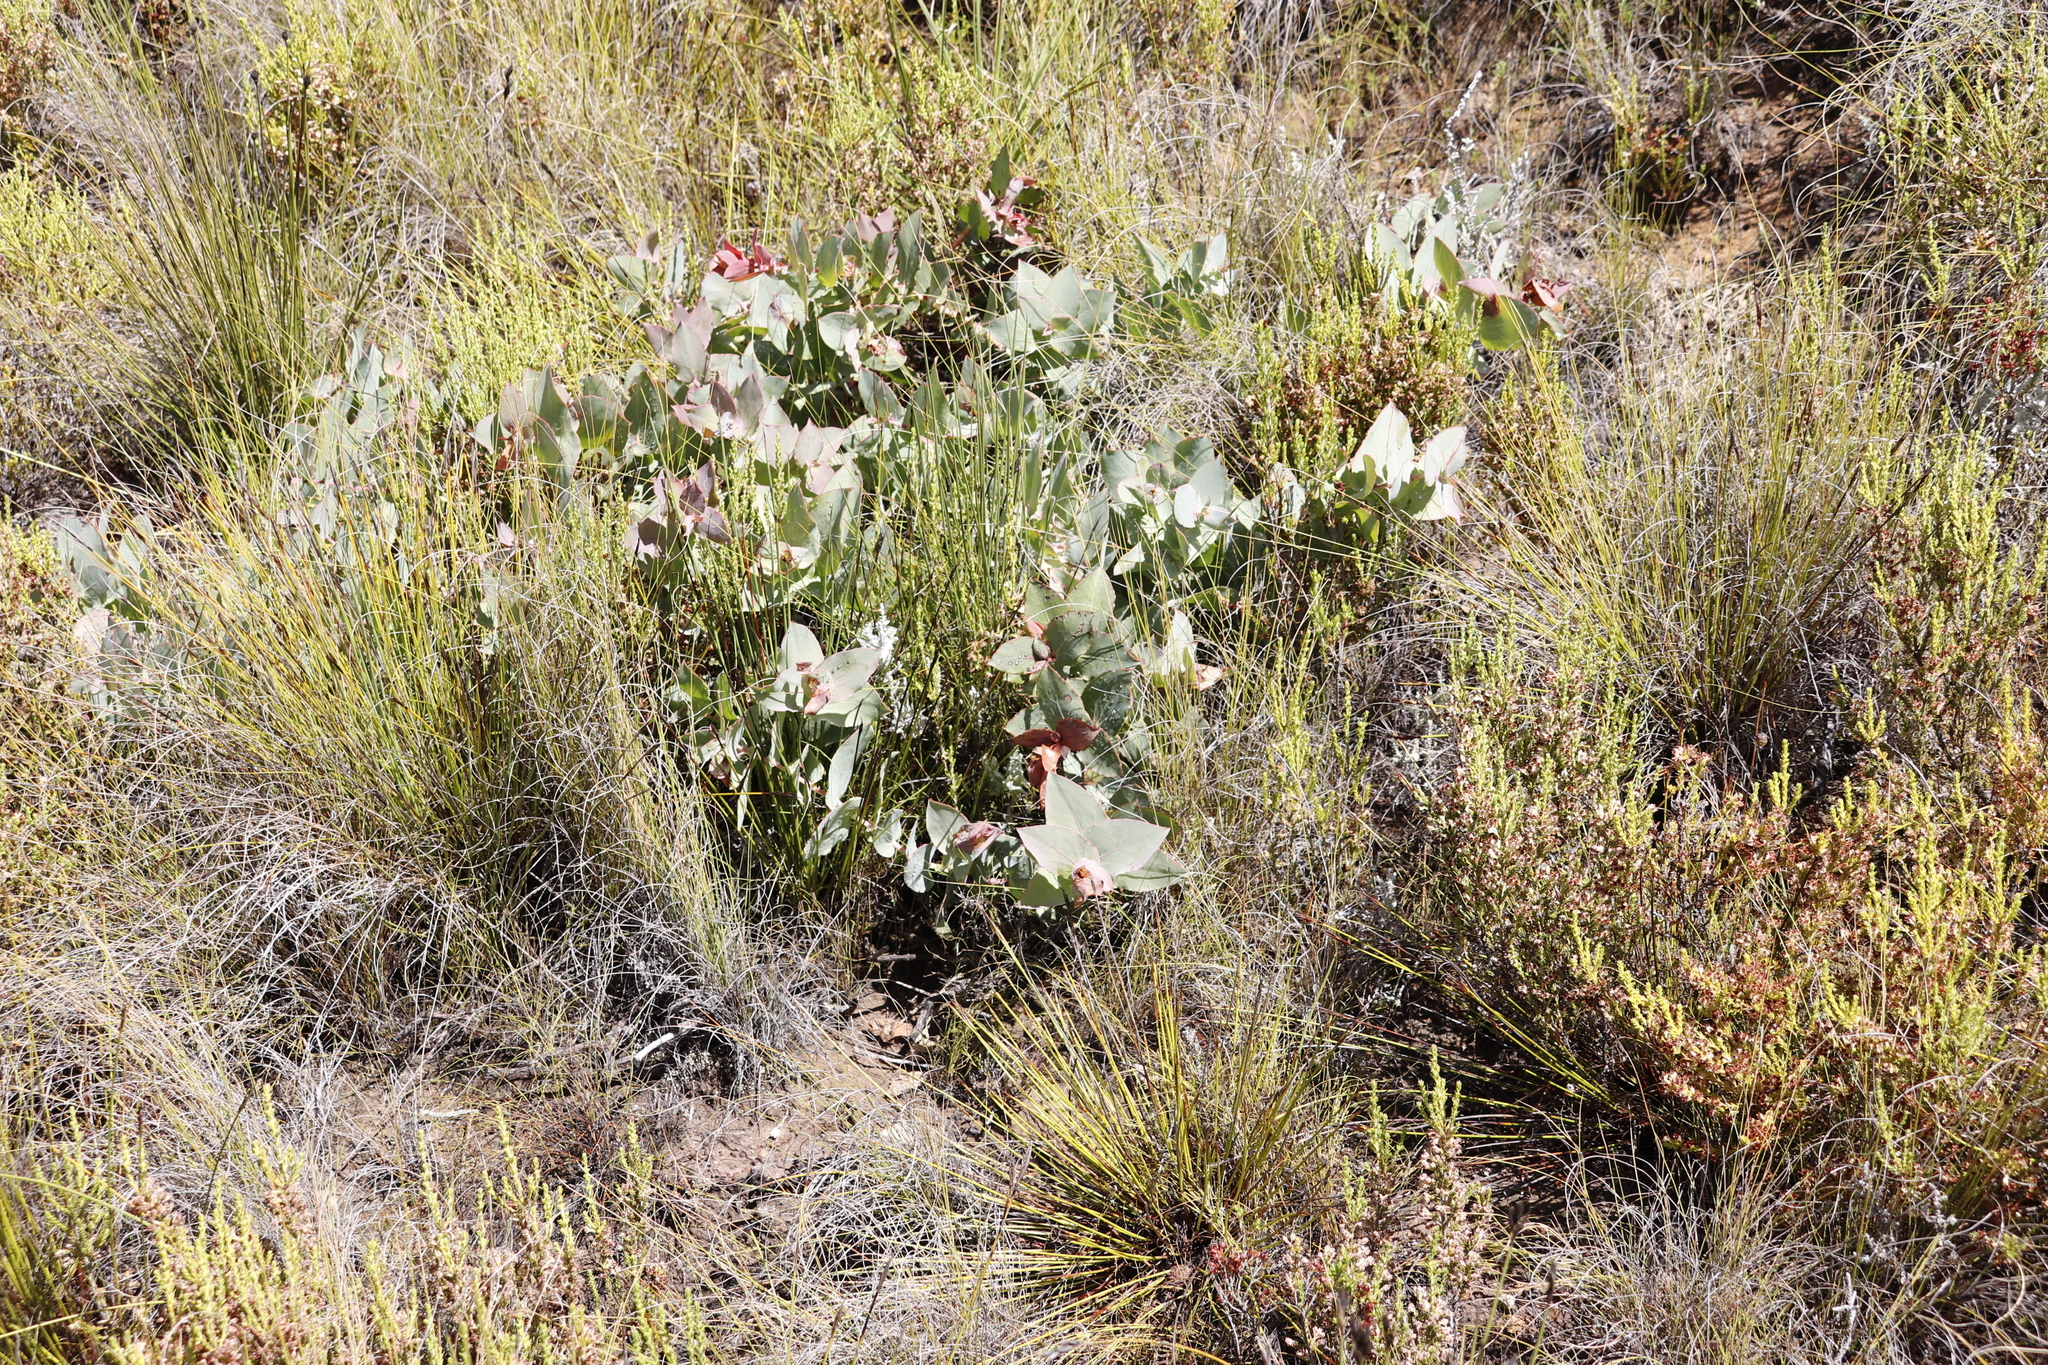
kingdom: Plantae
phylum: Tracheophyta
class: Magnoliopsida
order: Proteales
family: Proteaceae
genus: Protea
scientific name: Protea amplexicaulis
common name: Clasping-leaf sugarbush
